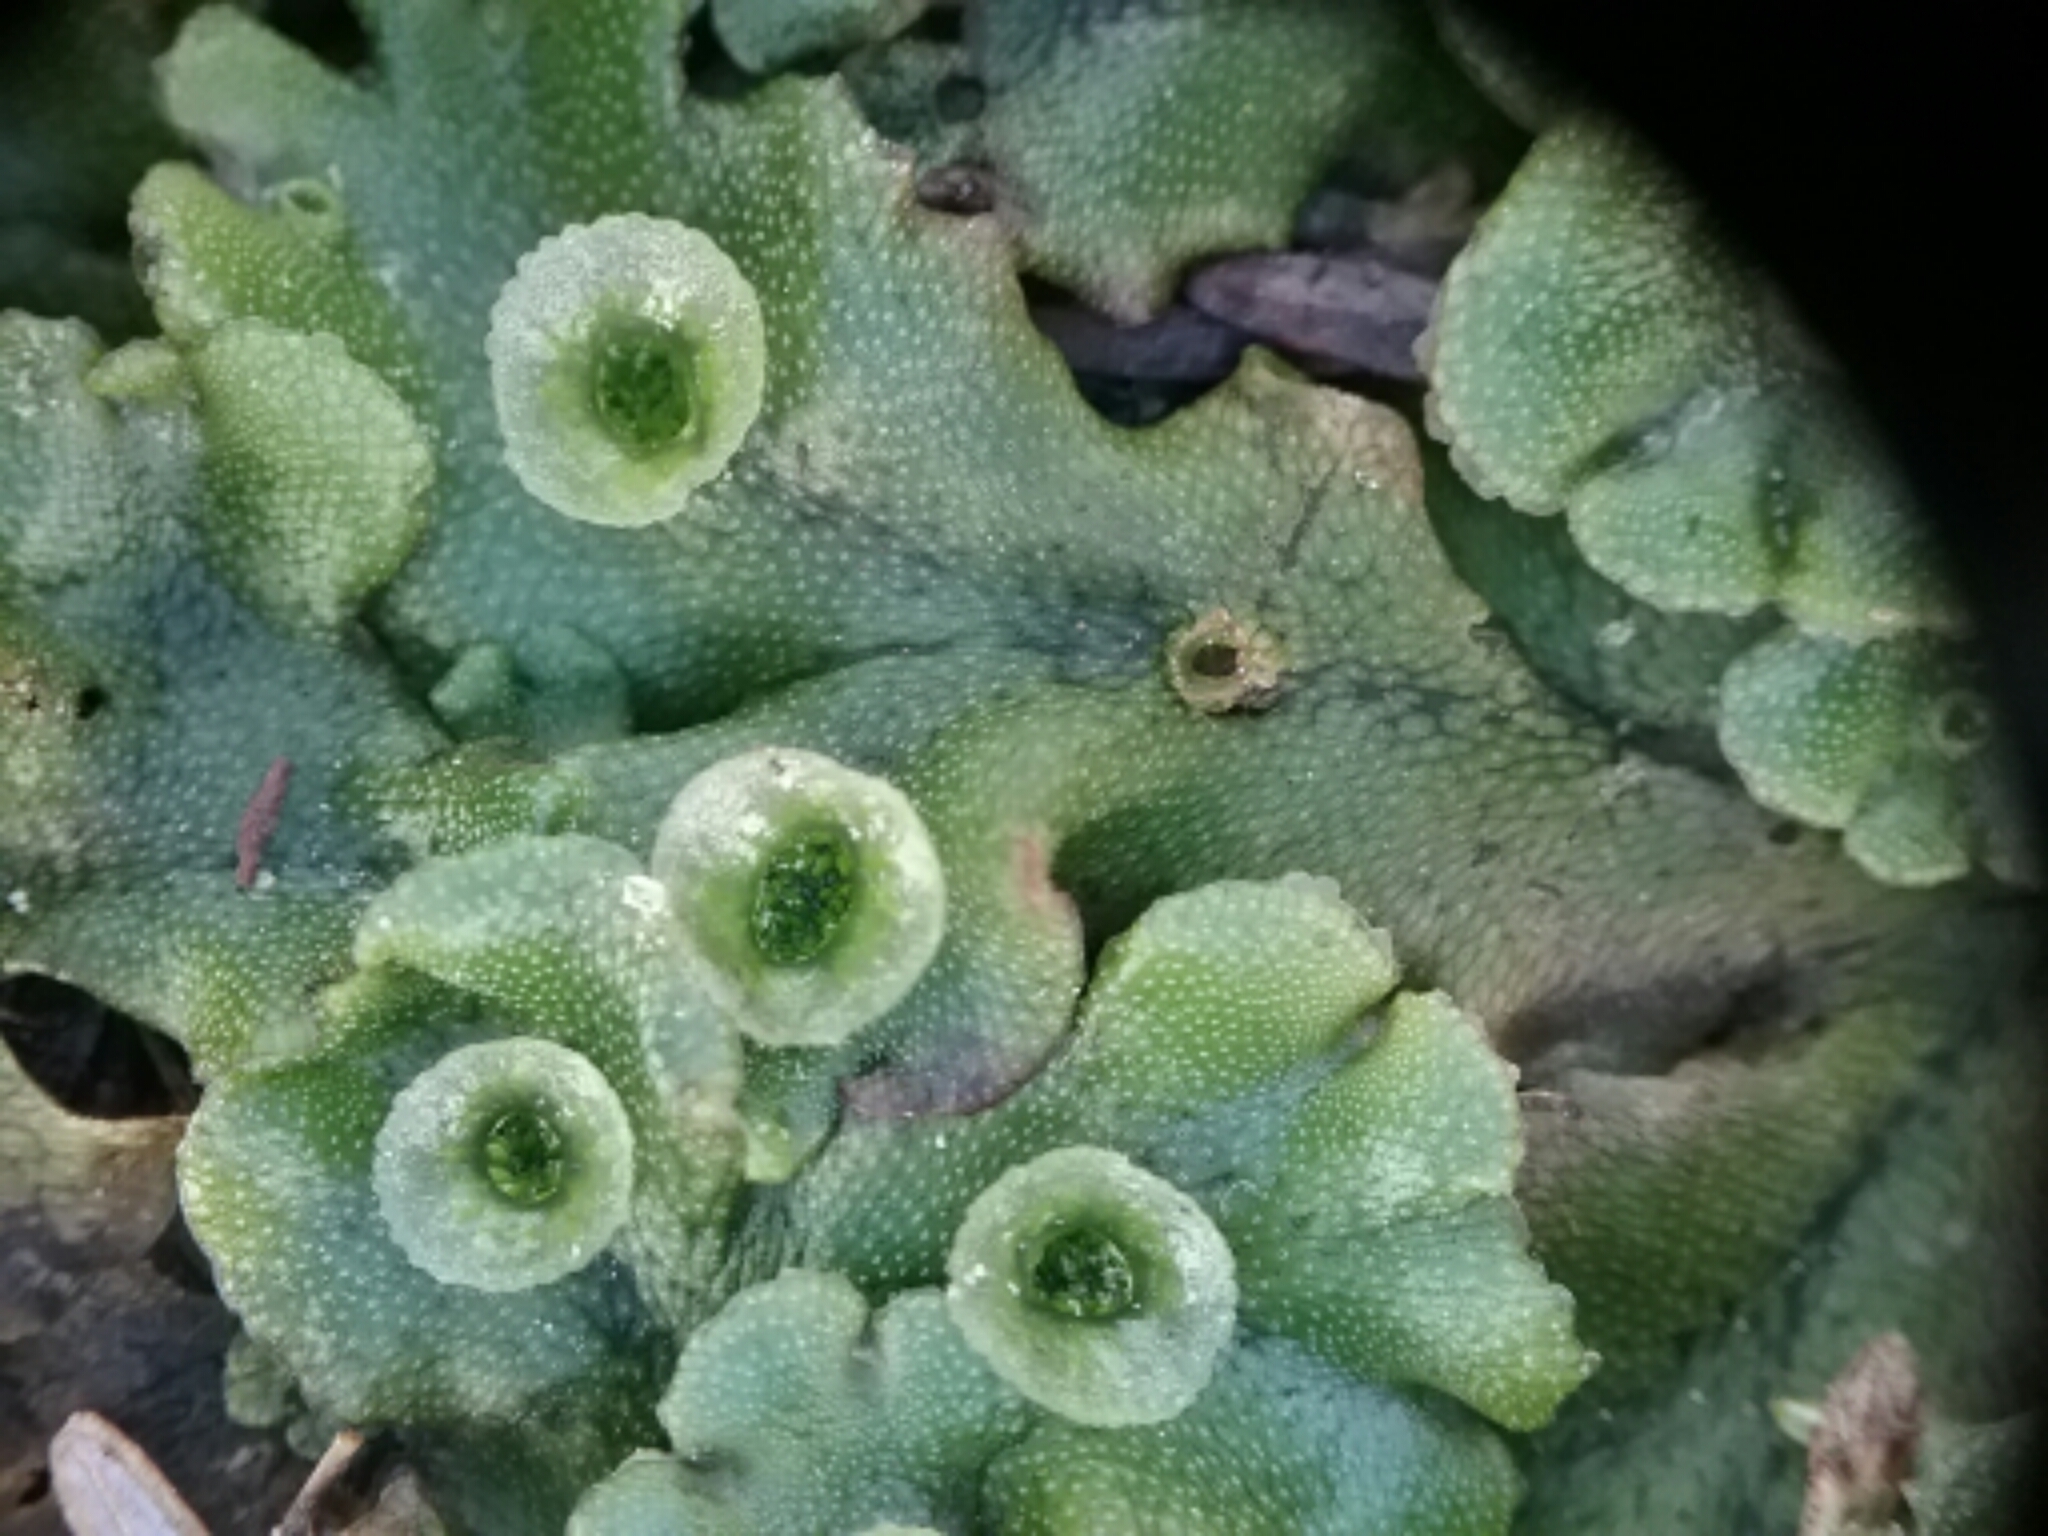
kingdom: Plantae
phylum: Marchantiophyta
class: Marchantiopsida
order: Marchantiales
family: Marchantiaceae
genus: Marchantia
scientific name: Marchantia polymorpha
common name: Common liverwort
